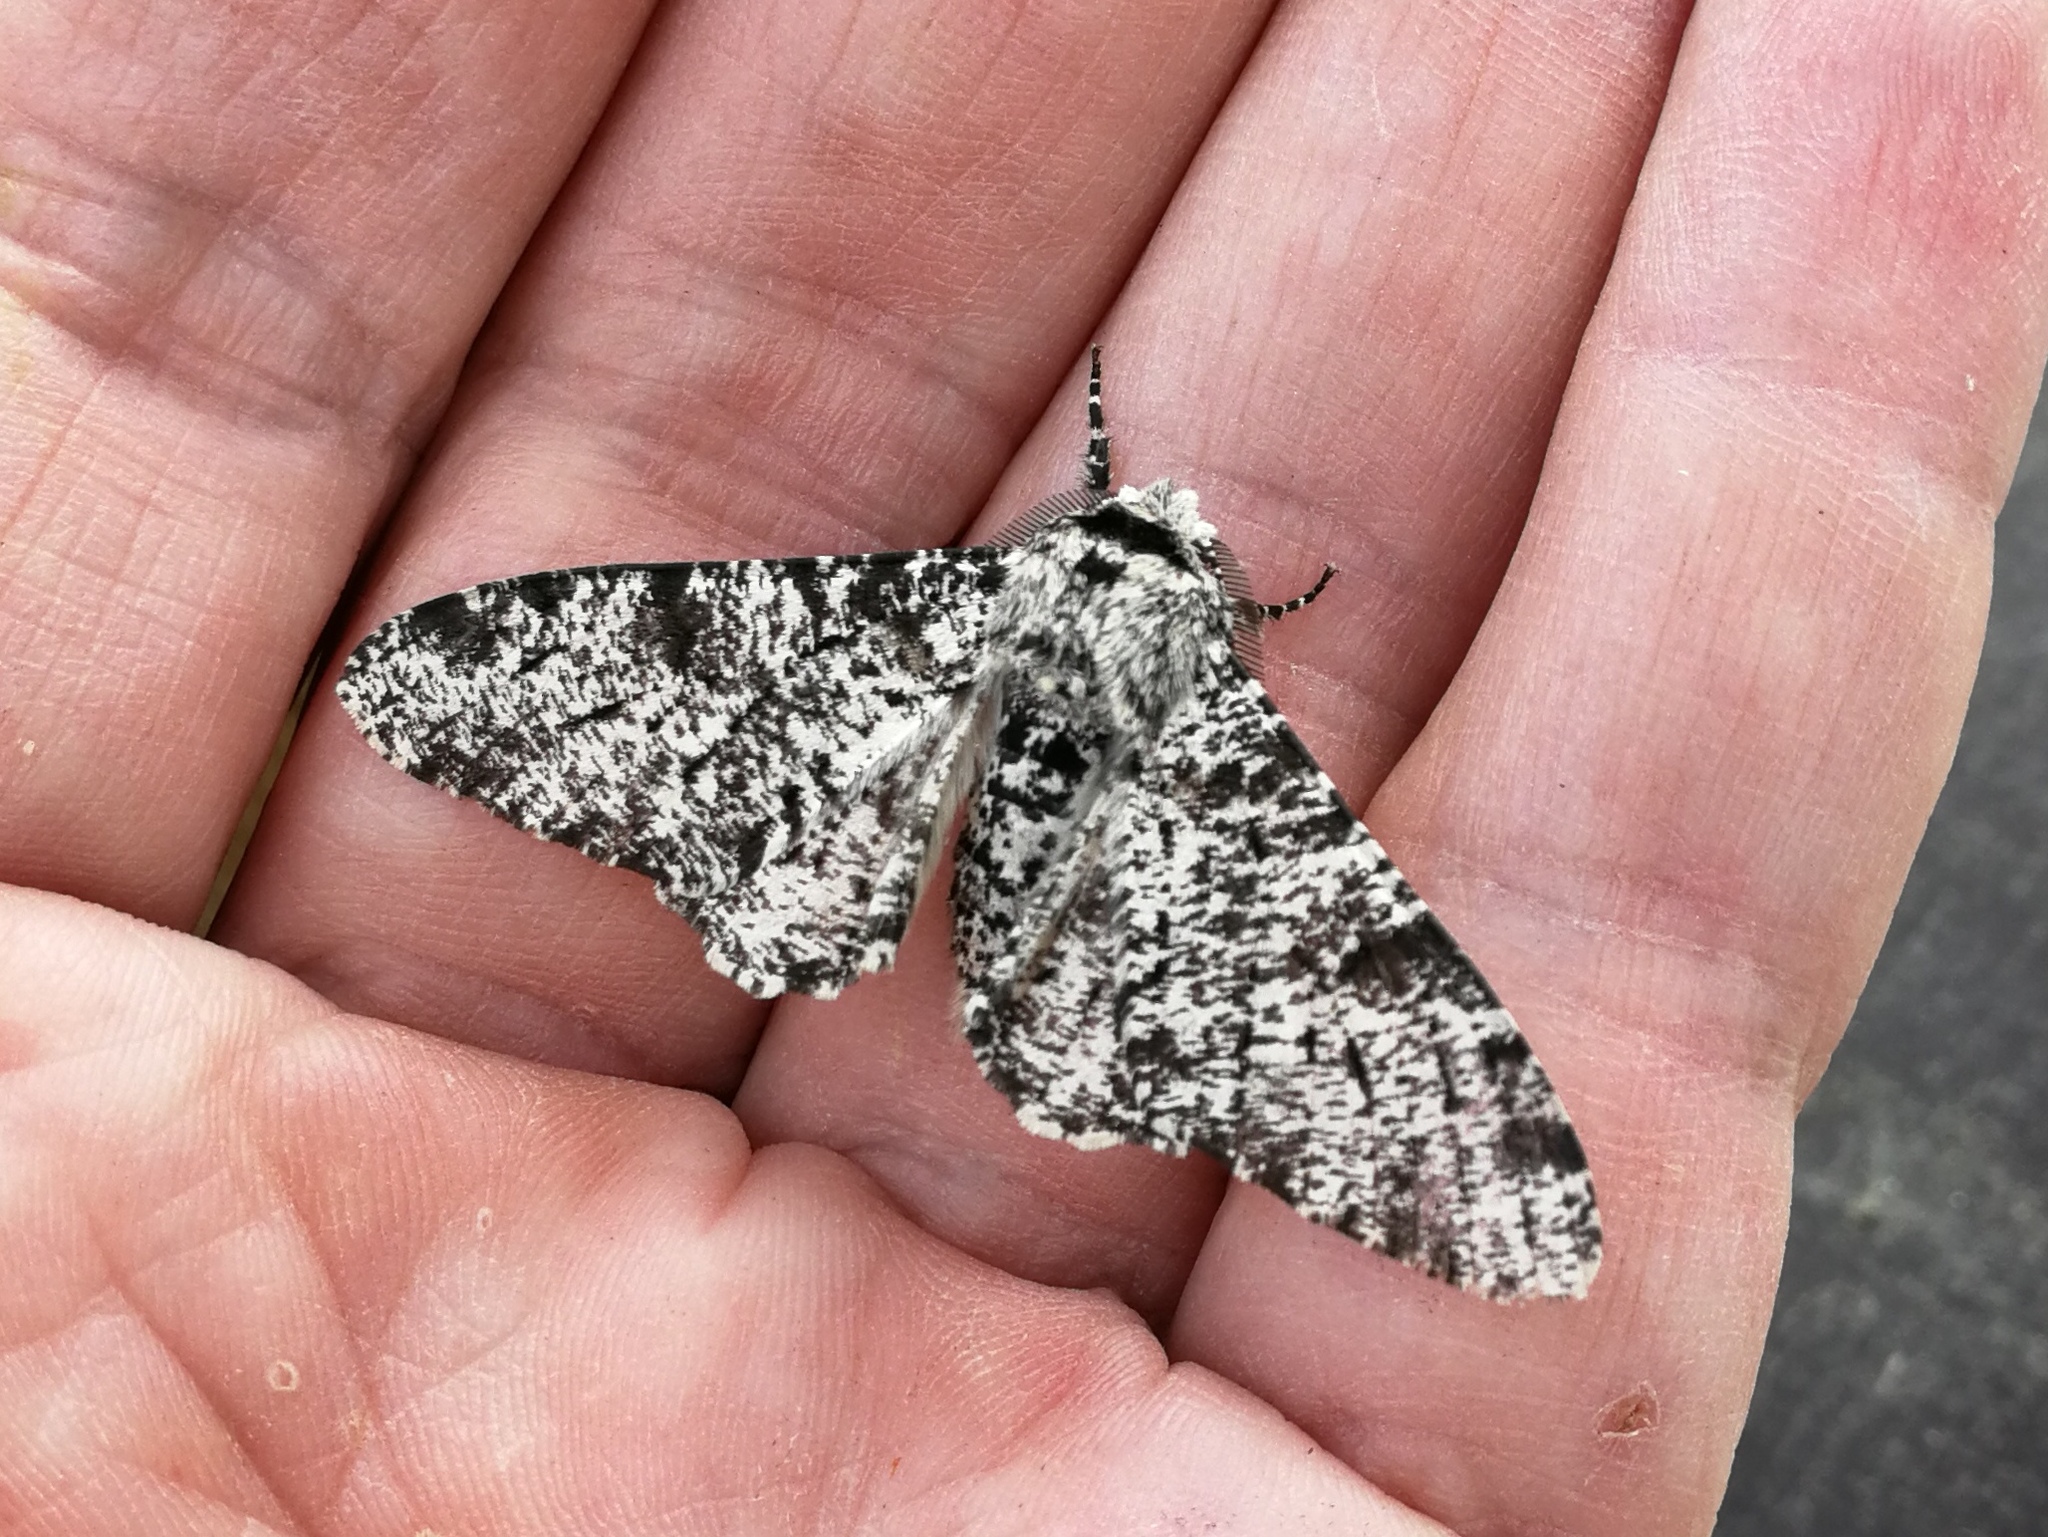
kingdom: Animalia
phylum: Arthropoda
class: Insecta
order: Lepidoptera
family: Geometridae
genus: Biston
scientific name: Biston betularia
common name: Peppered moth
